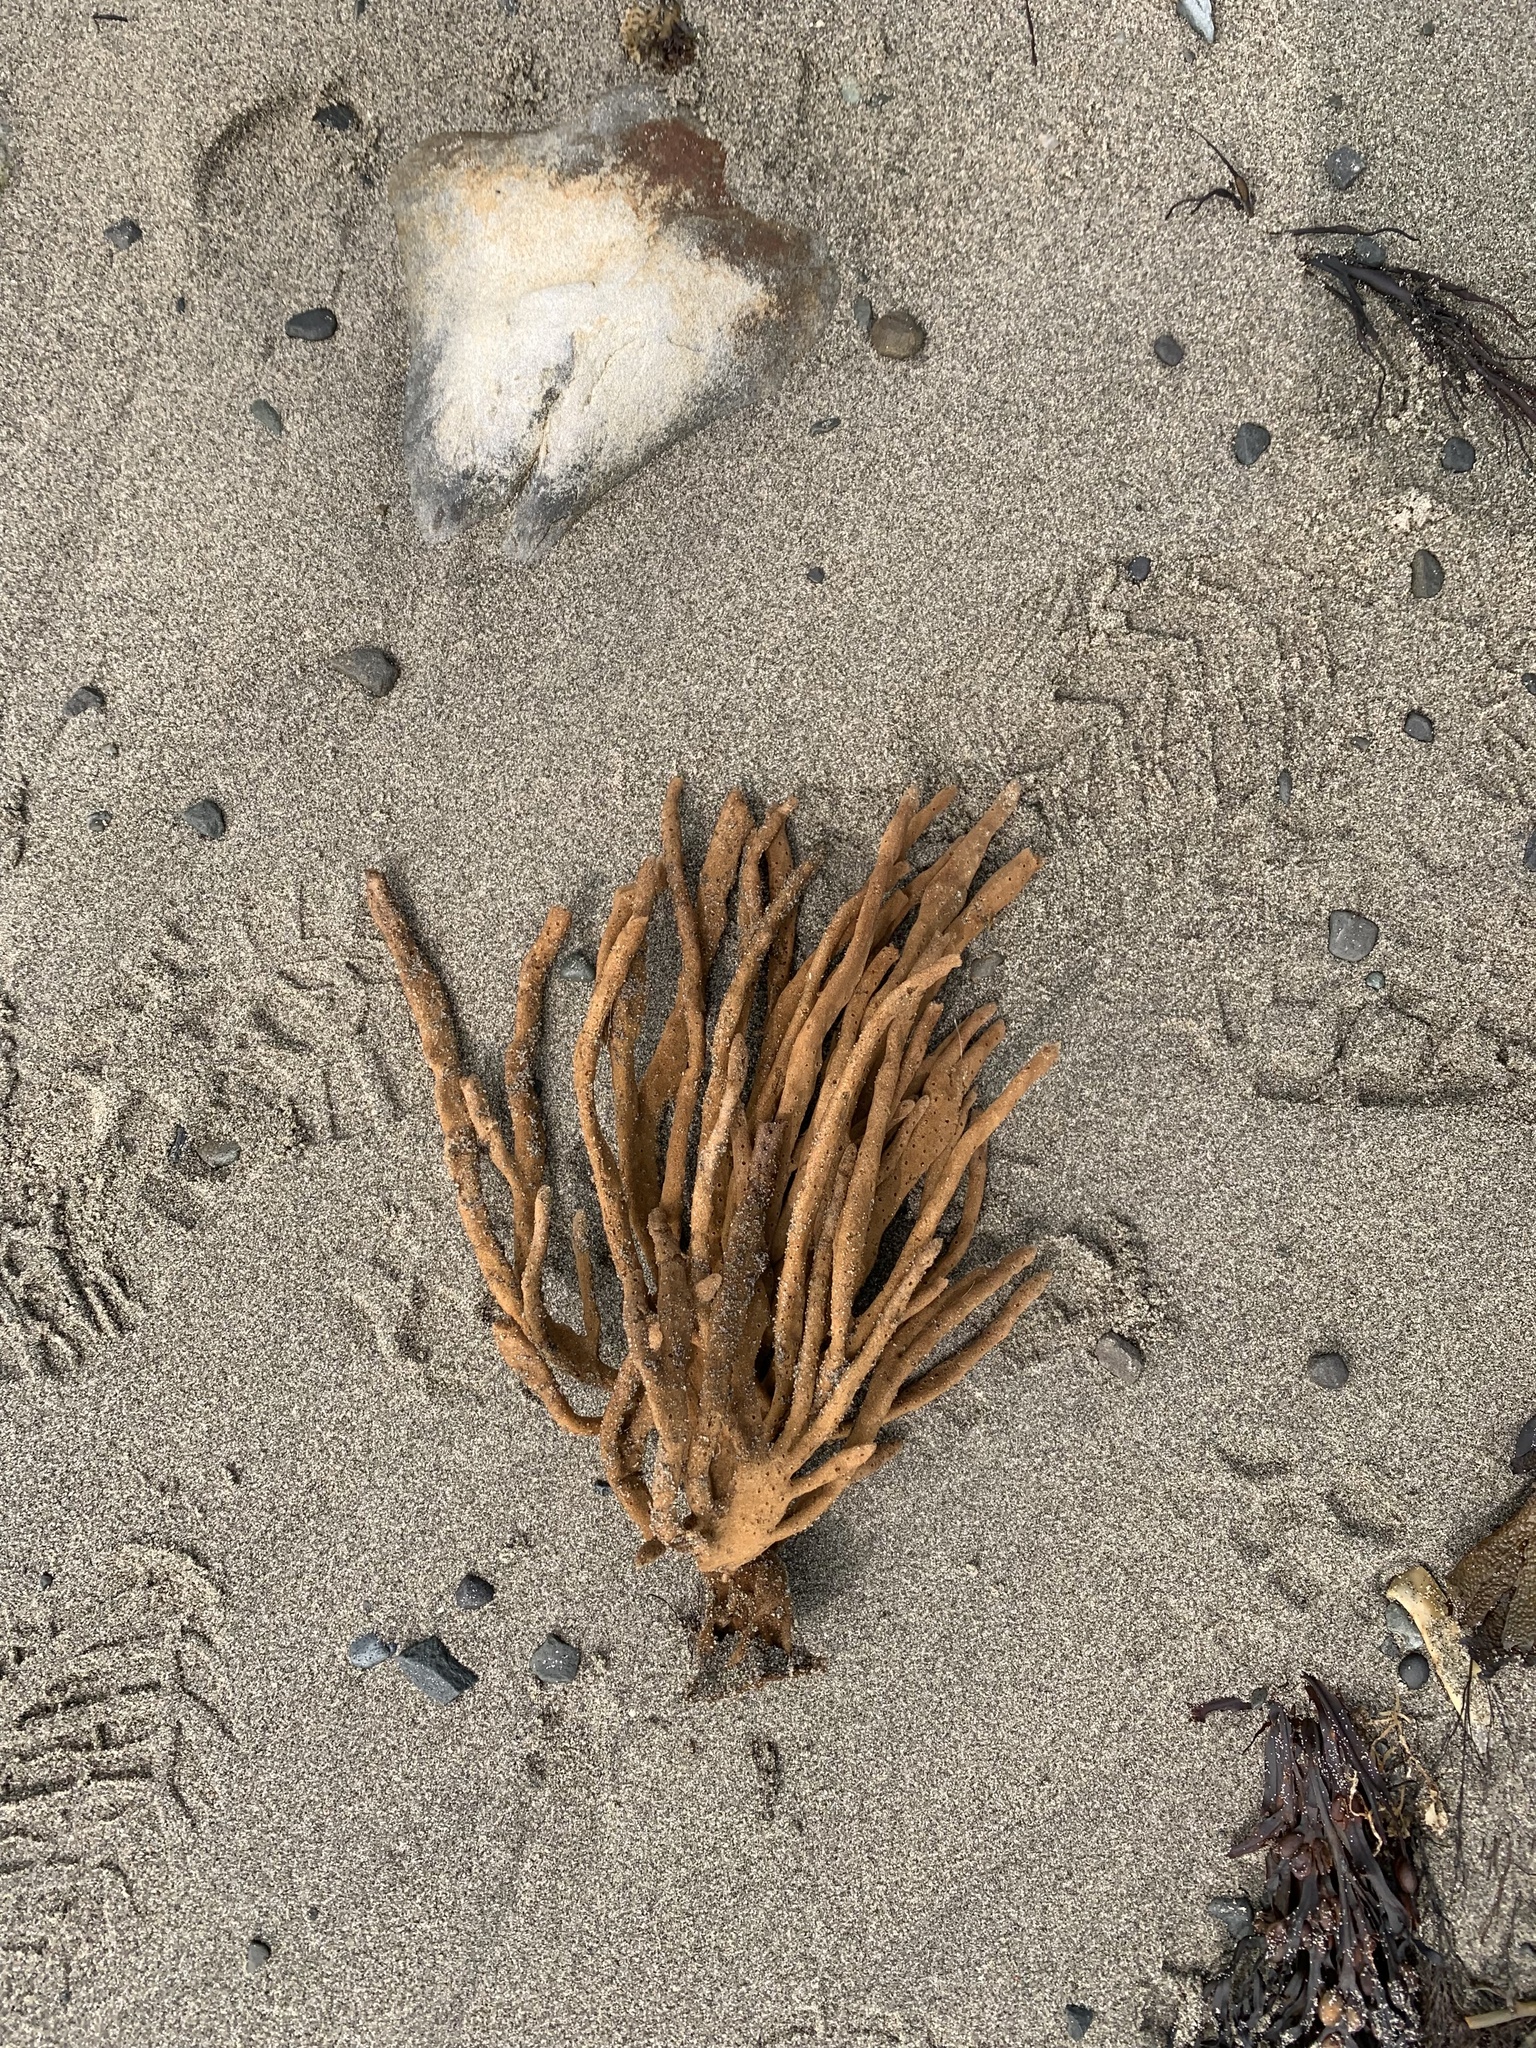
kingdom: Animalia
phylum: Porifera
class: Demospongiae
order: Haplosclerida
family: Chalinidae
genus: Haliclona
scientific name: Haliclona oculata
